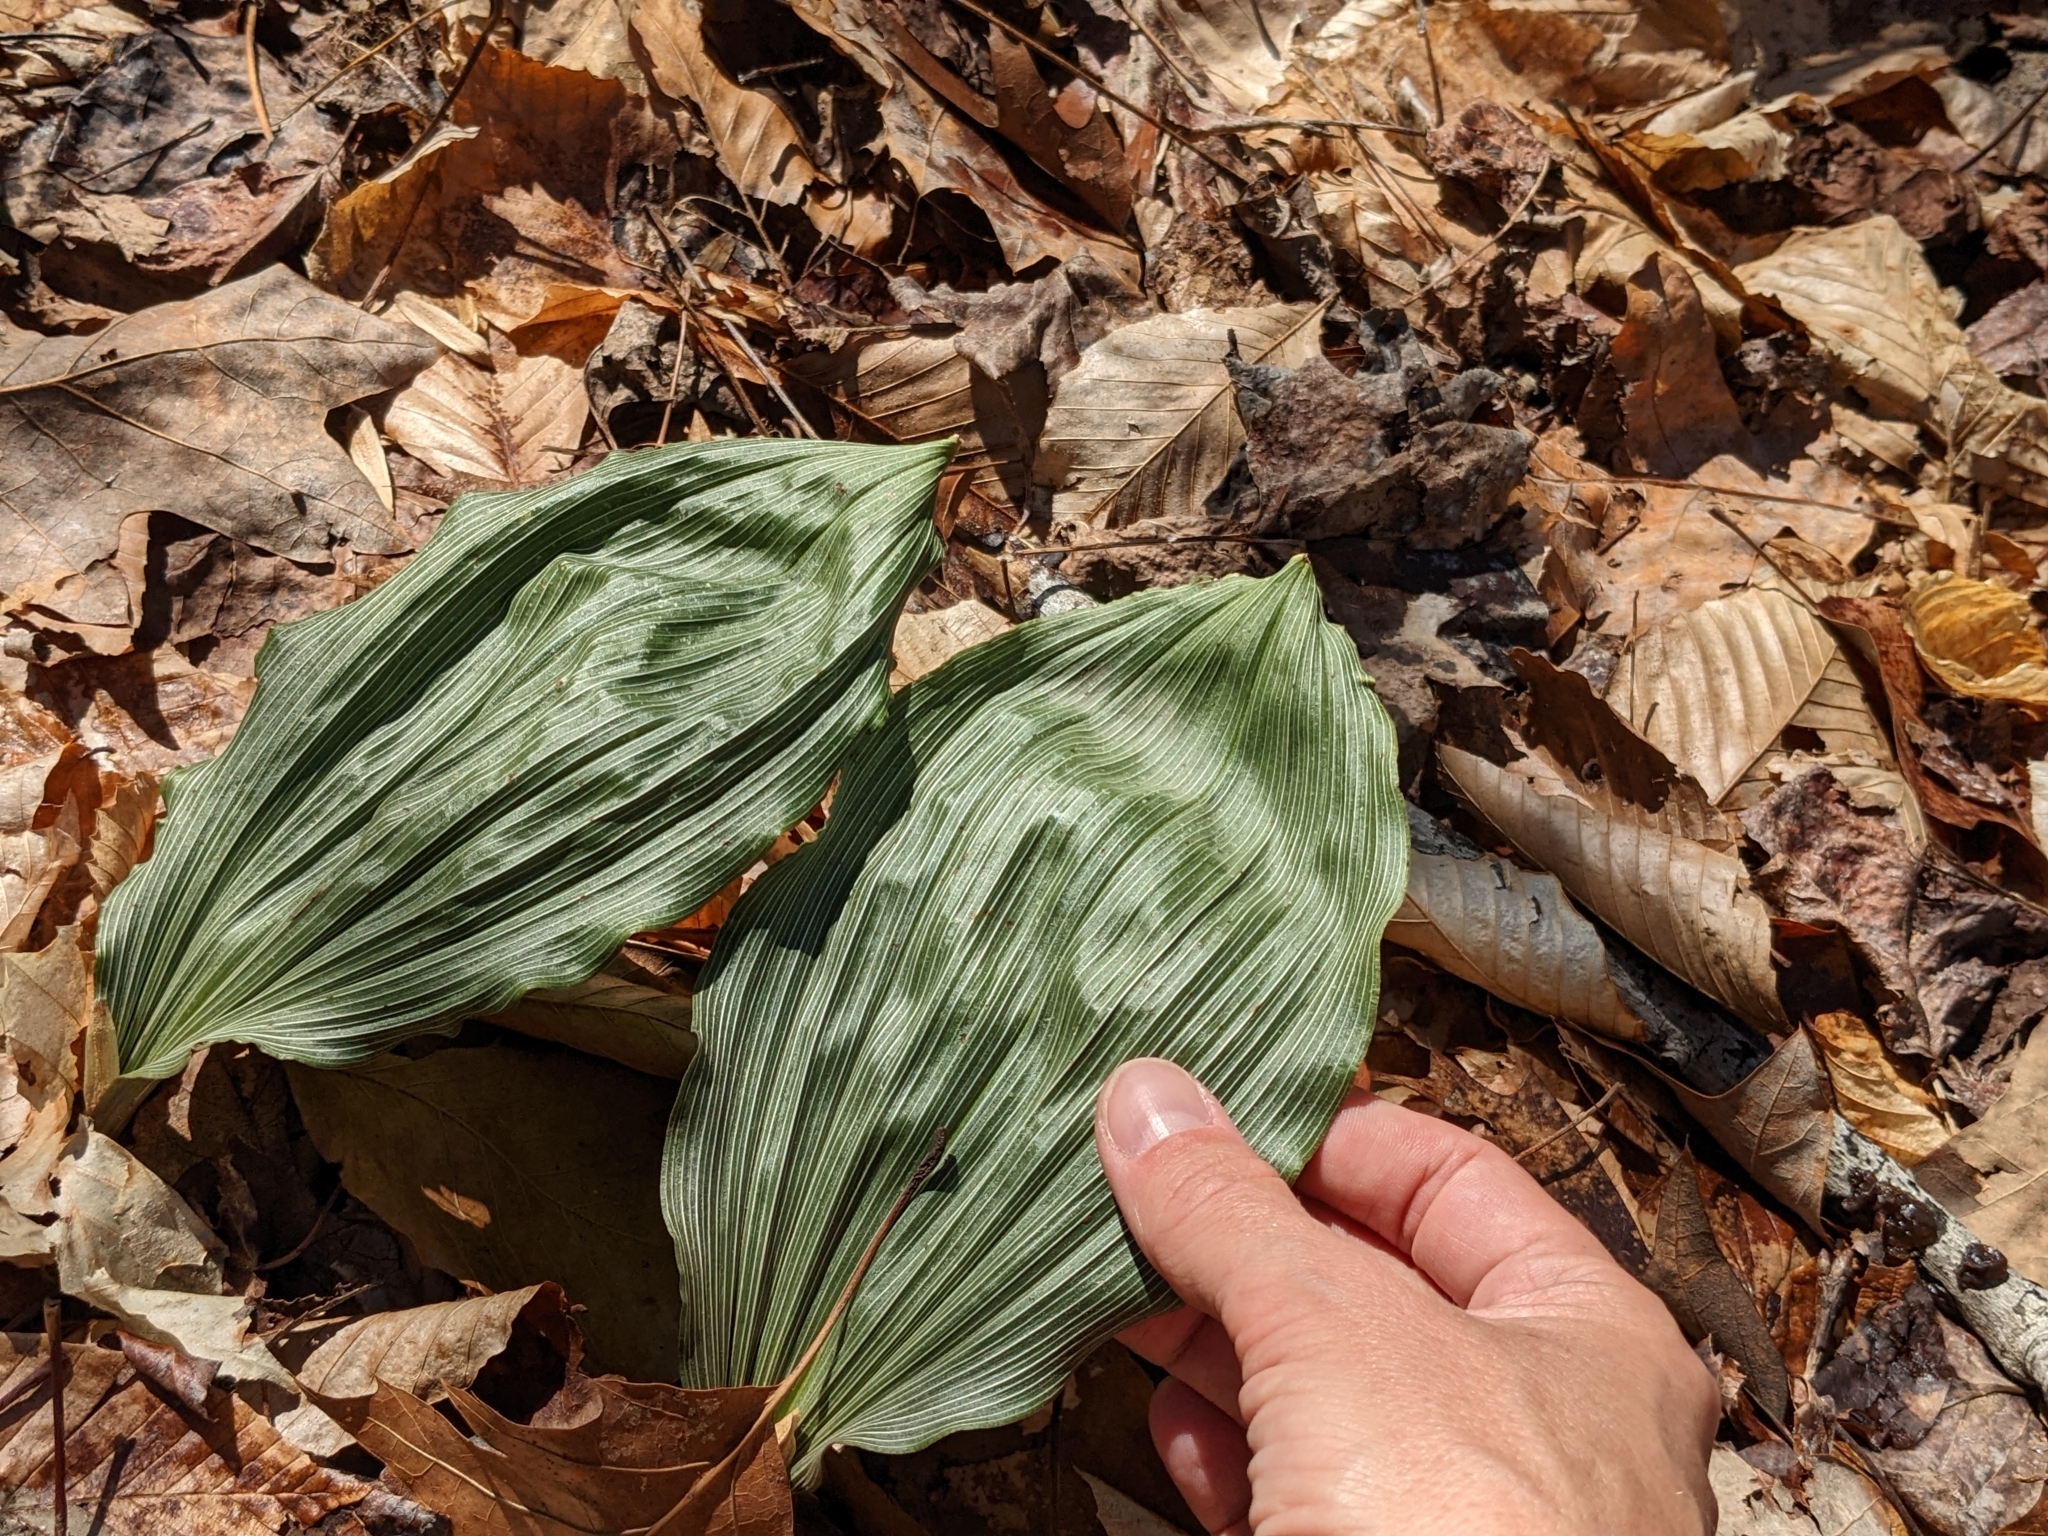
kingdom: Plantae
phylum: Tracheophyta
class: Liliopsida
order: Asparagales
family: Orchidaceae
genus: Aplectrum
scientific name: Aplectrum hyemale
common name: Adam-and-eve
